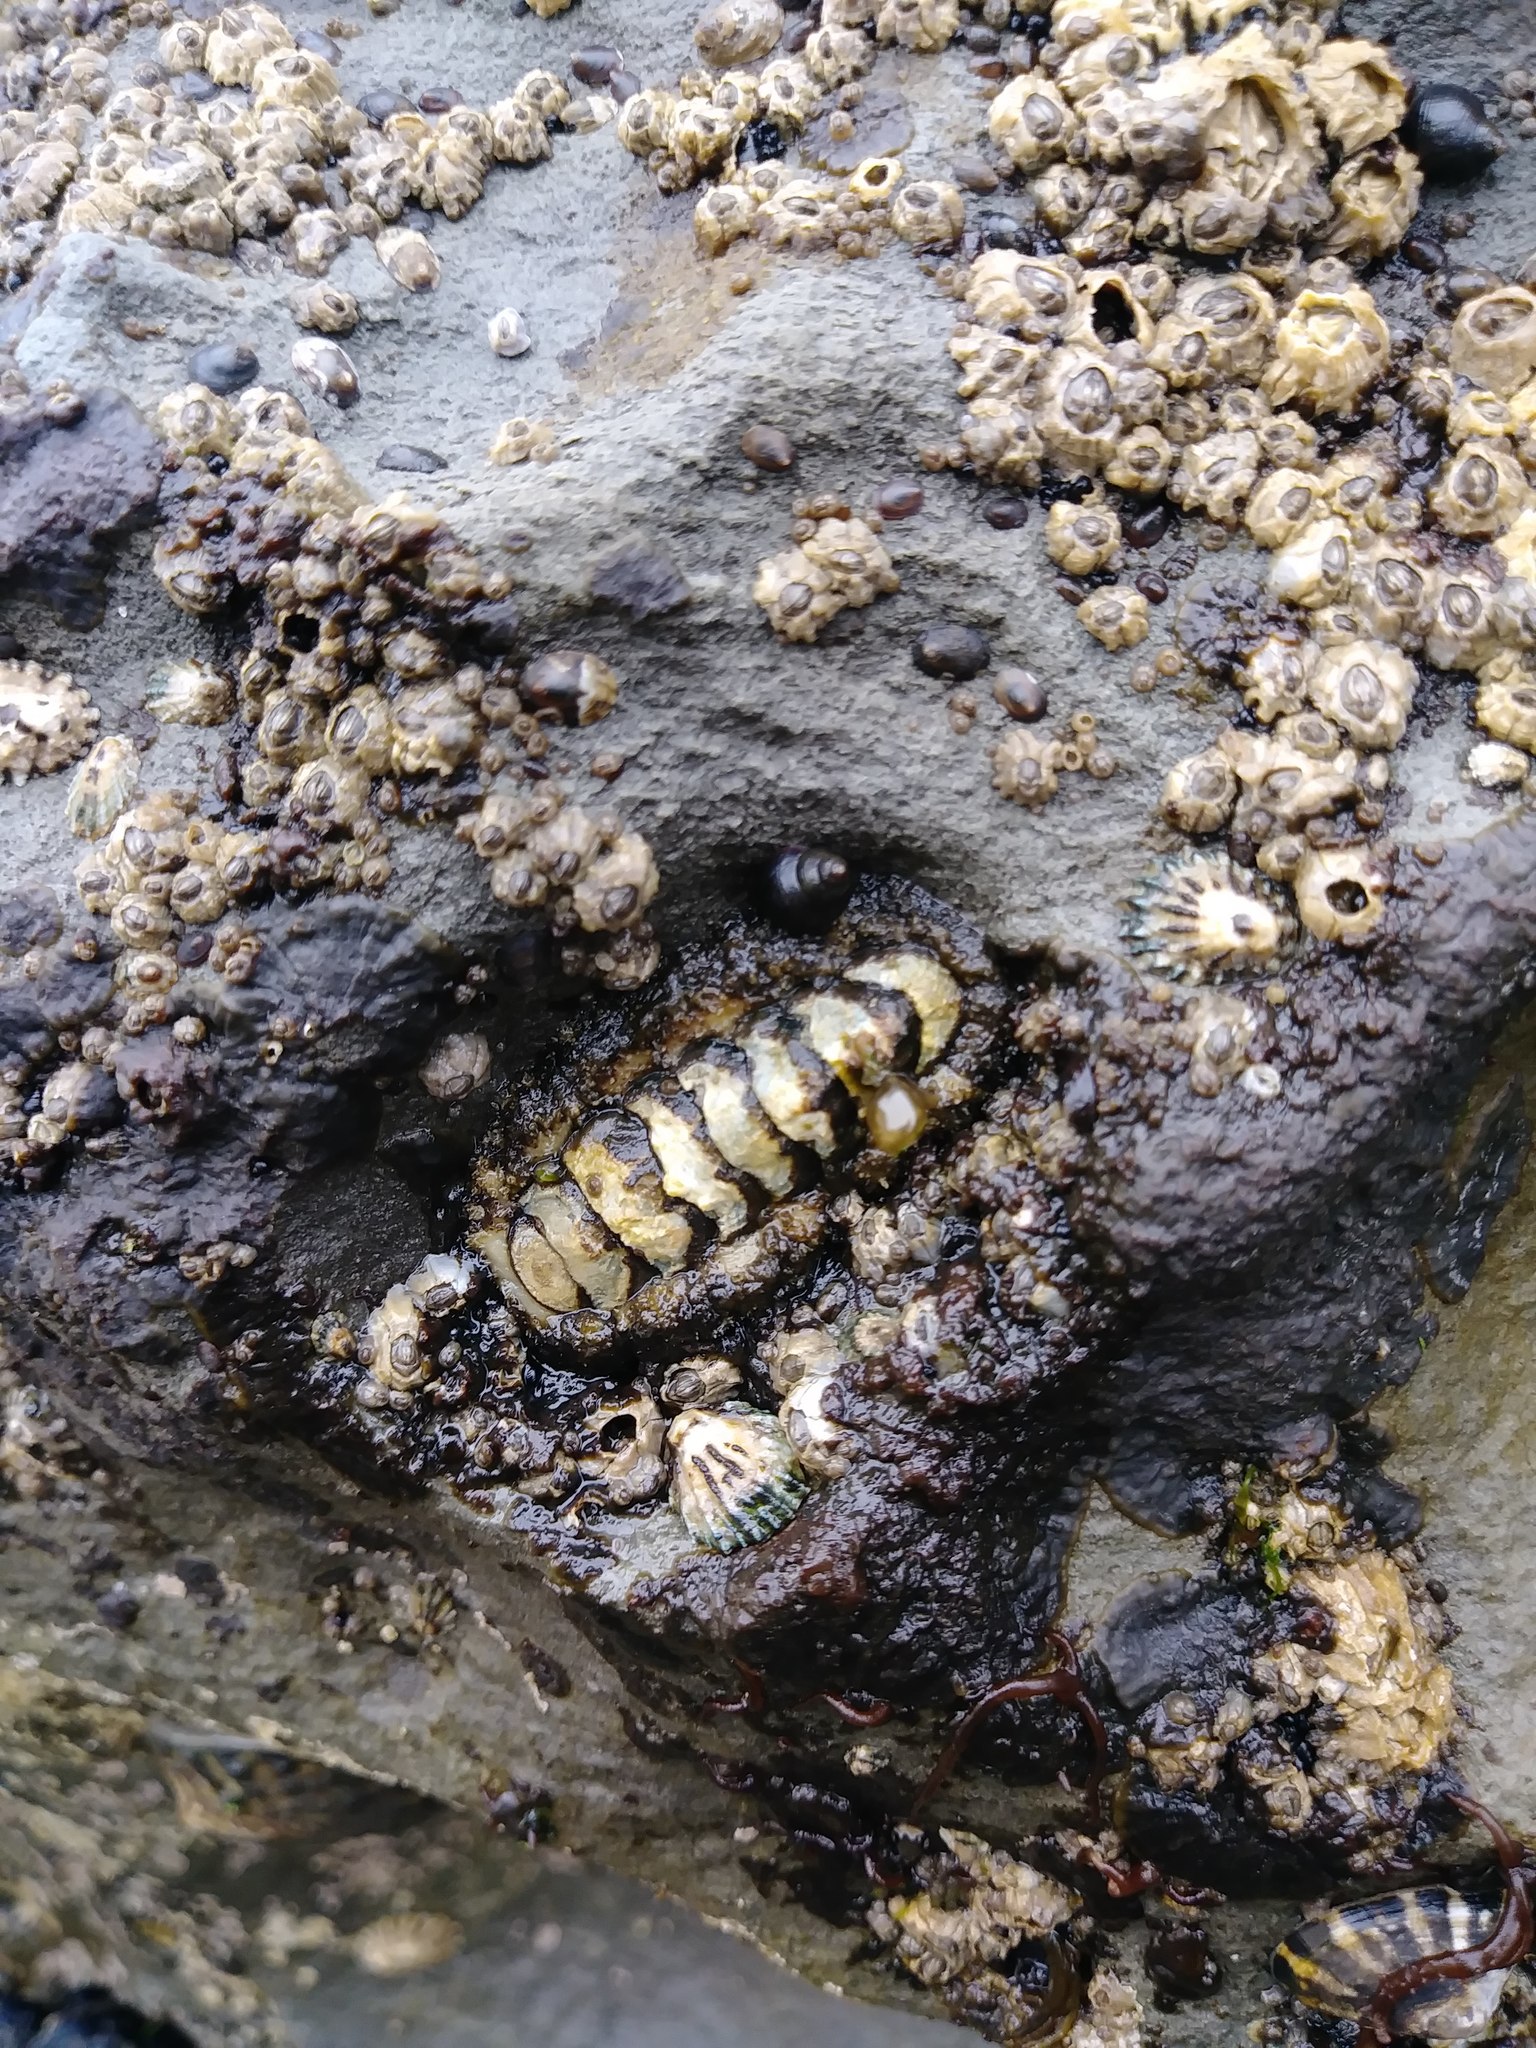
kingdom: Animalia
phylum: Mollusca
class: Polyplacophora
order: Chitonida
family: Tonicellidae
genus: Nuttallina
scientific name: Nuttallina californica
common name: California nuttall chiton
